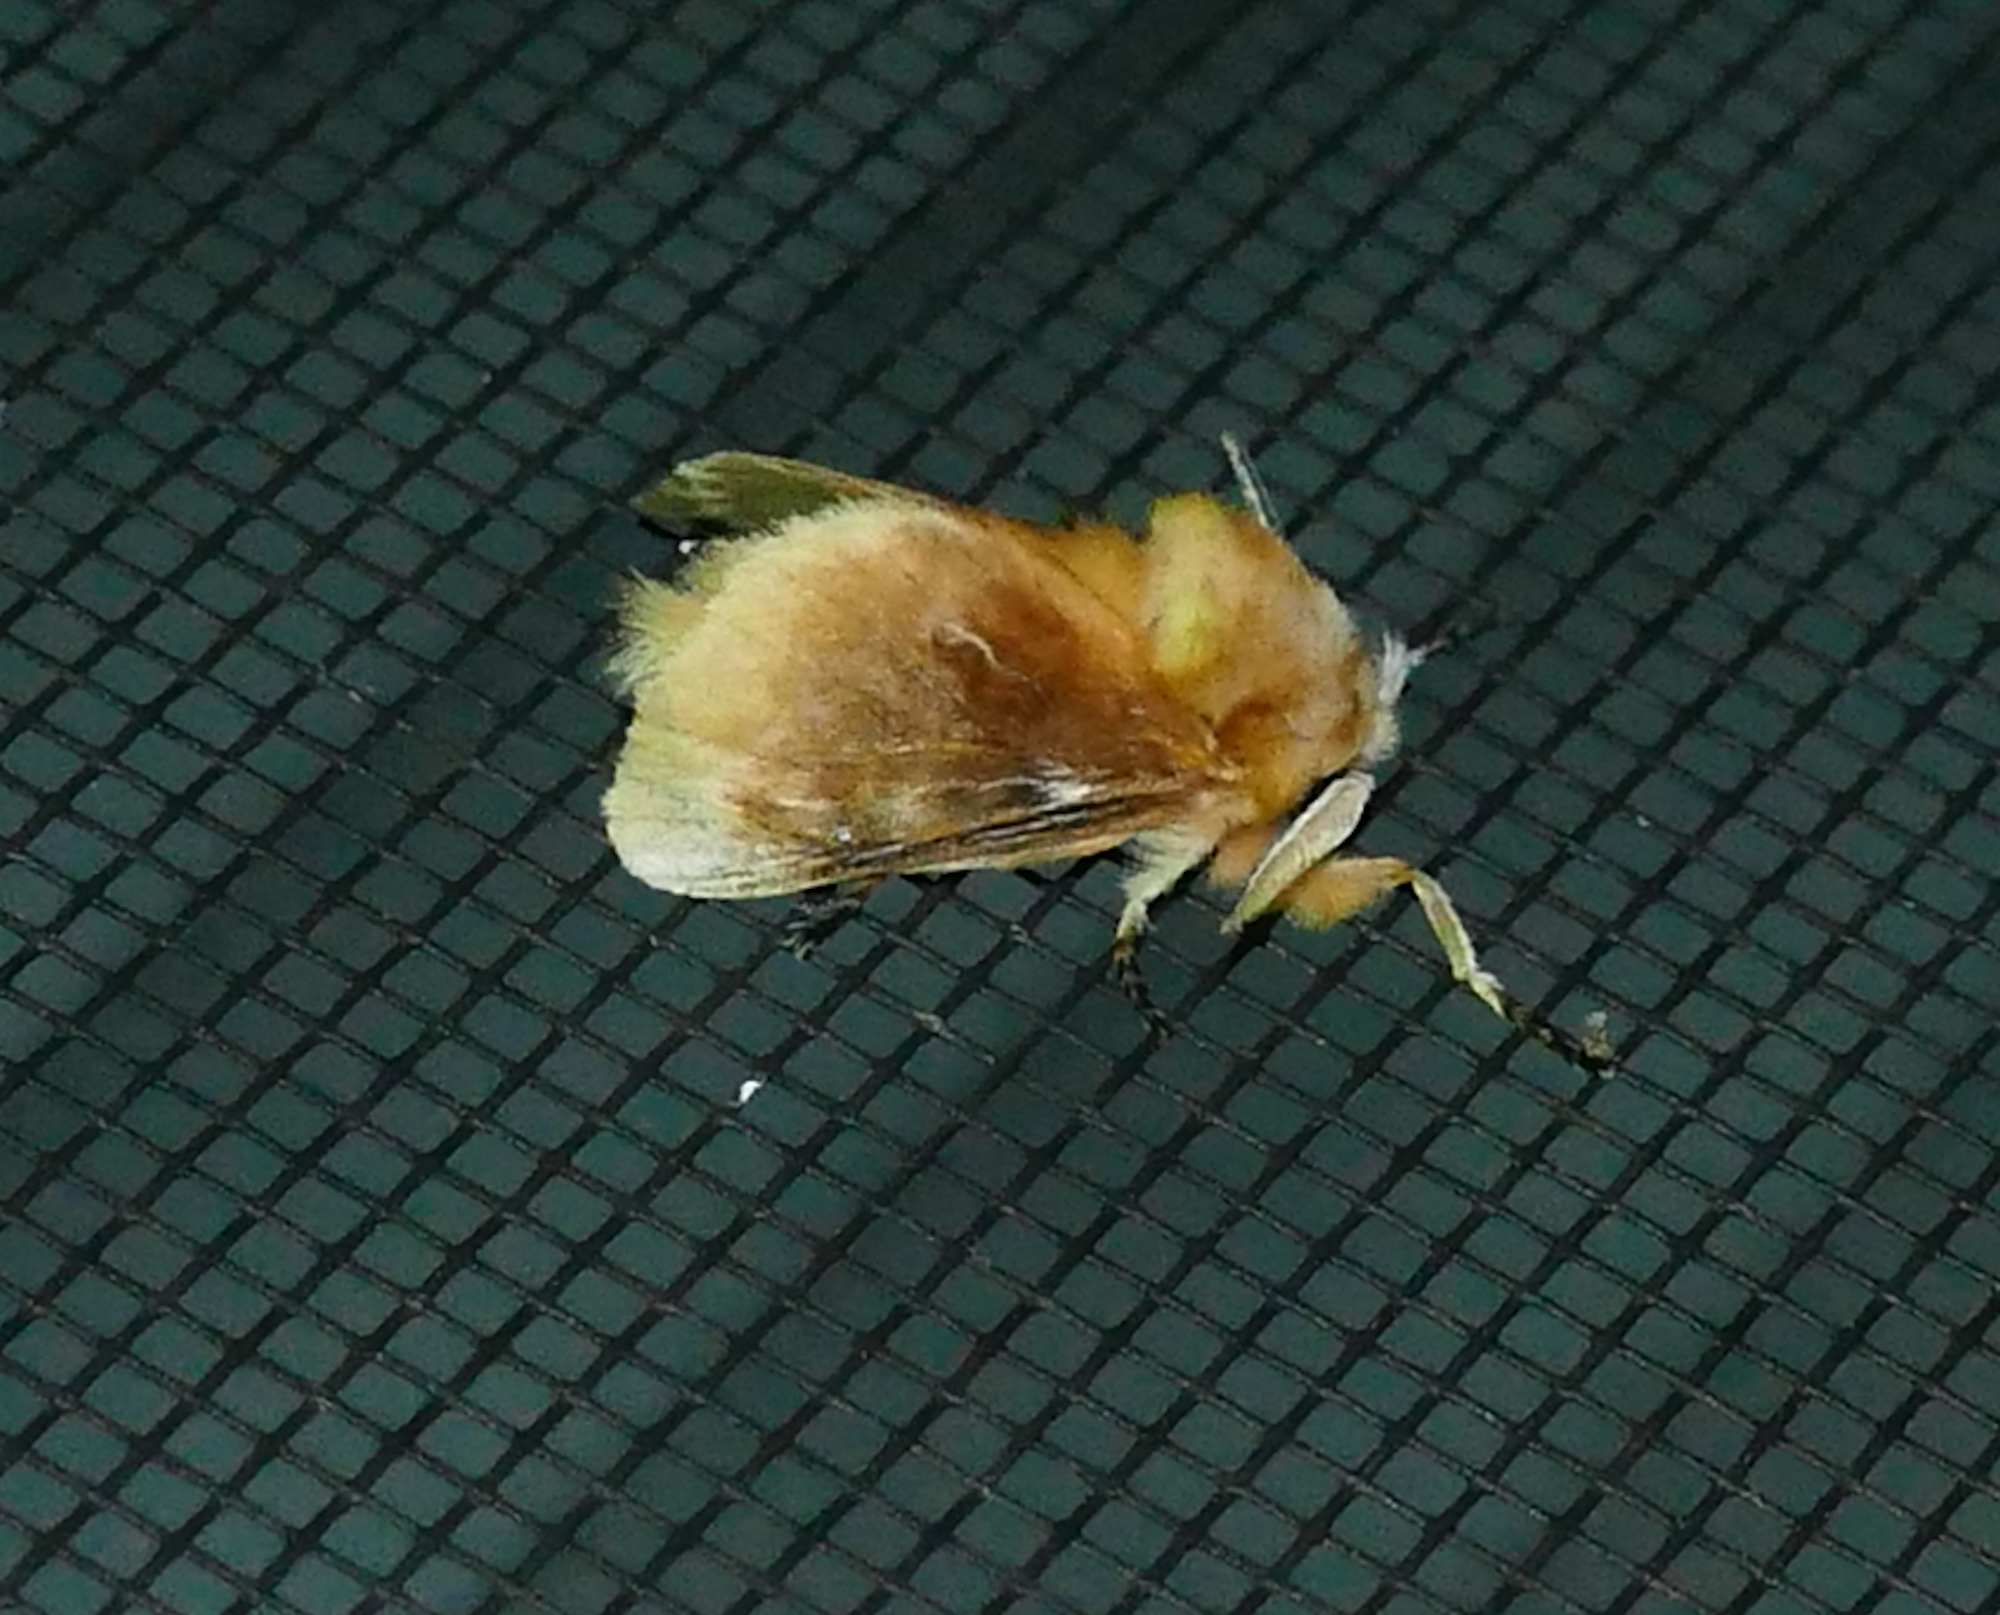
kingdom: Animalia
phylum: Arthropoda
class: Insecta
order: Lepidoptera
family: Megalopygidae
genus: Megalopyge
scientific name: Megalopyge opercularis
